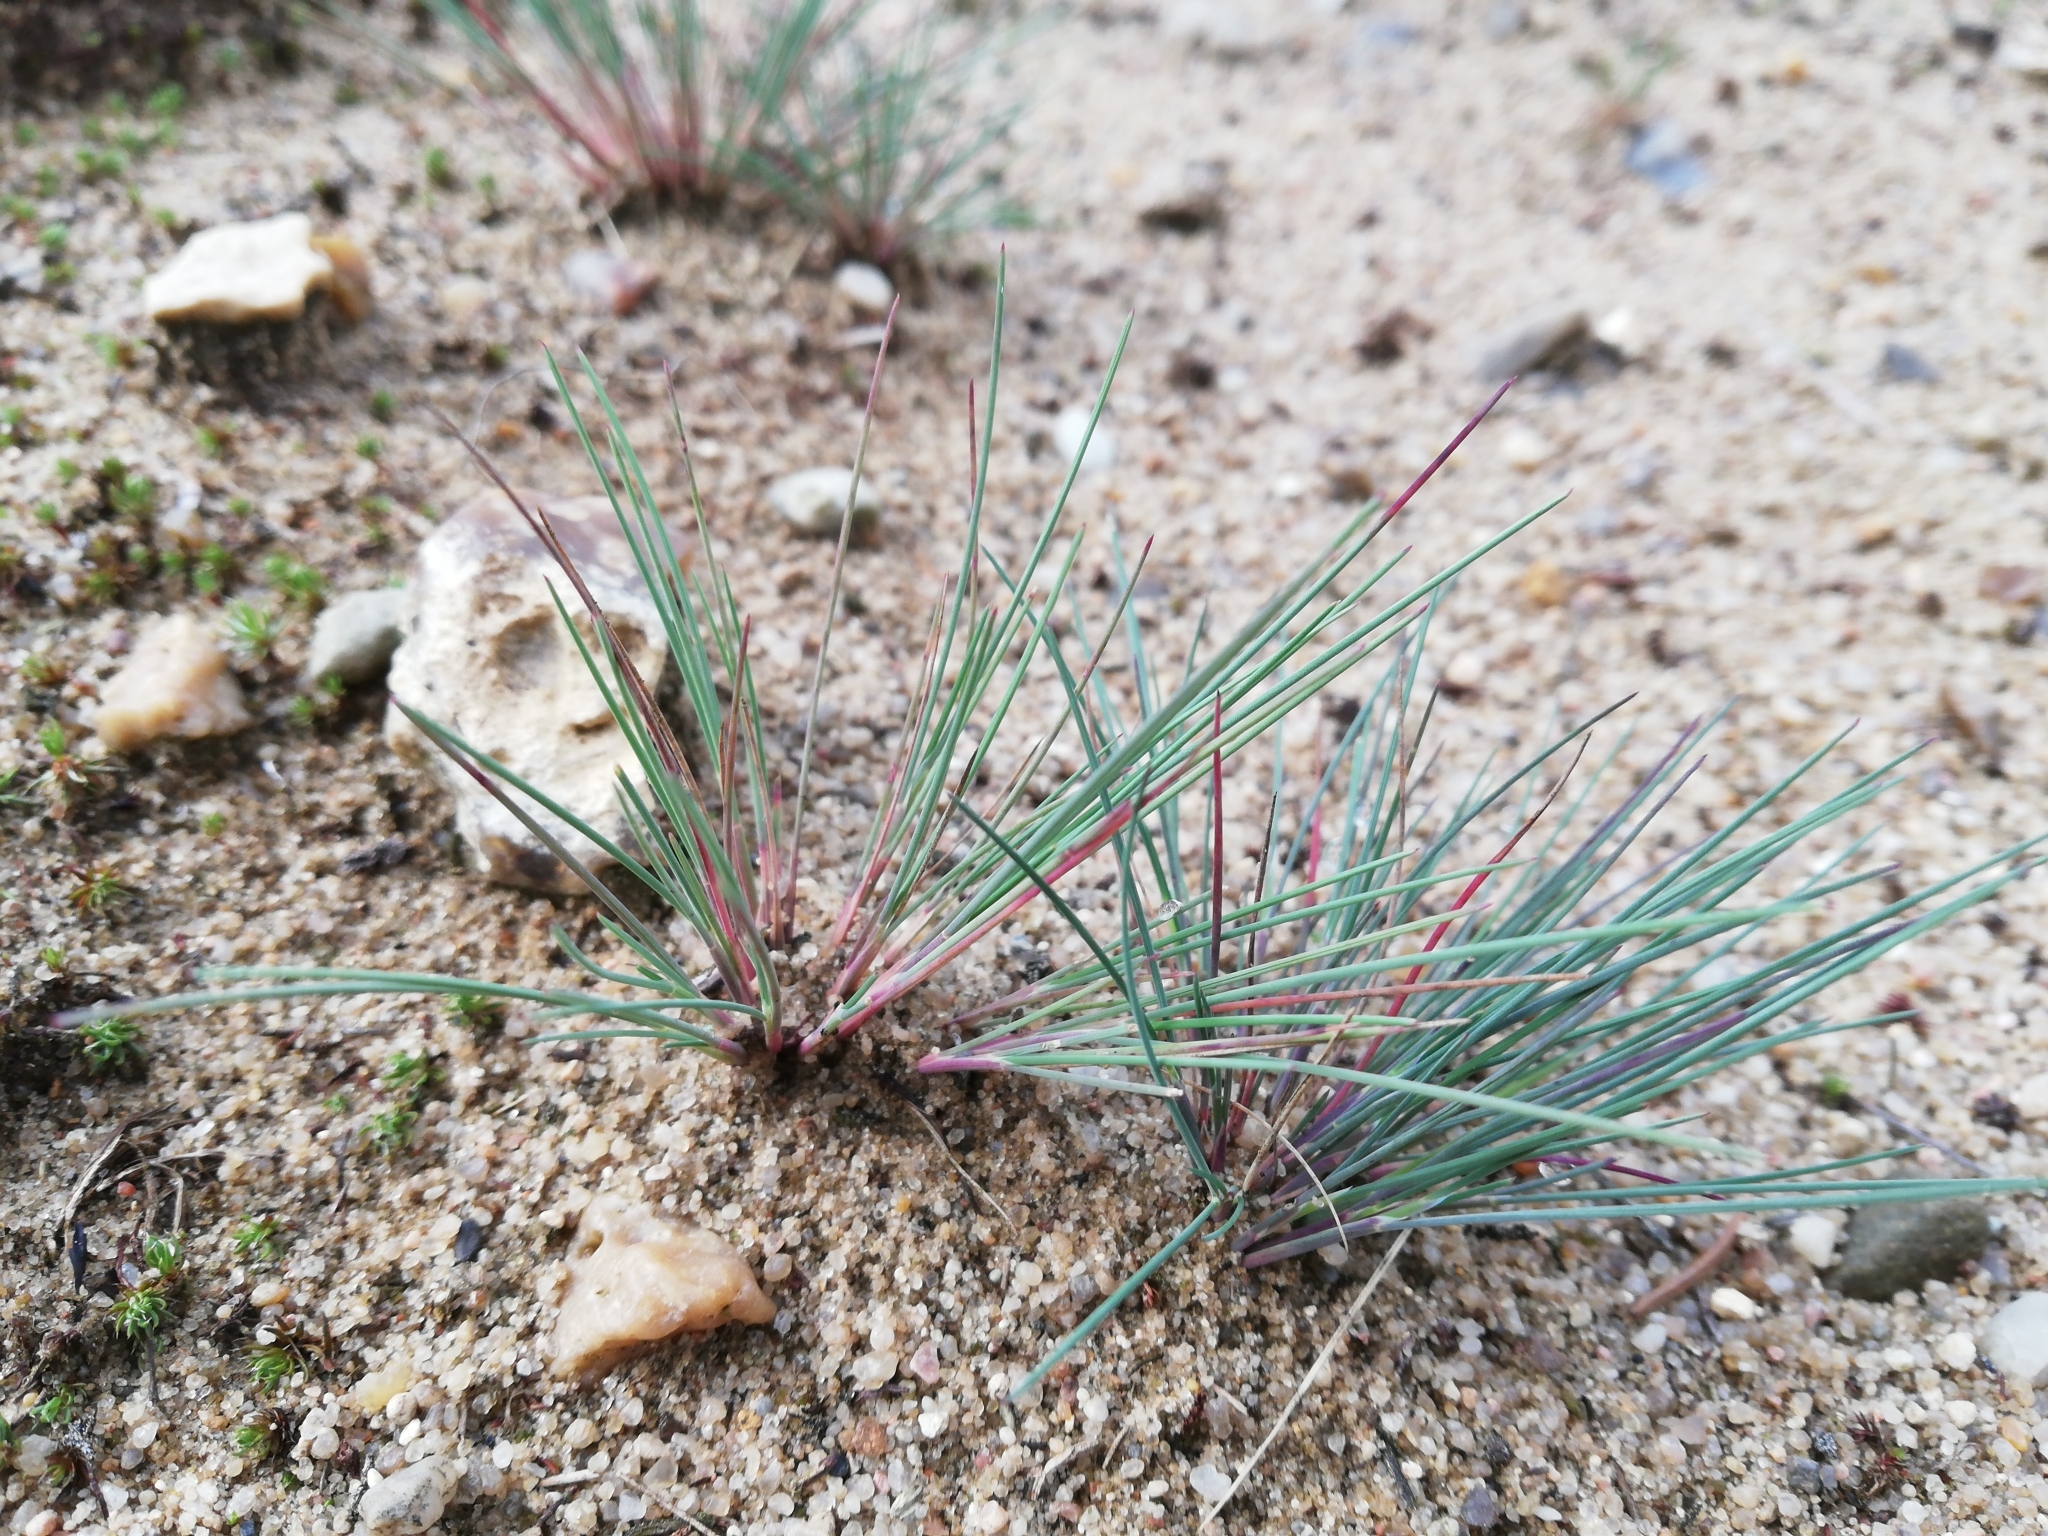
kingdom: Plantae
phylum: Tracheophyta
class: Liliopsida
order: Poales
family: Poaceae
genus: Corynephorus
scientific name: Corynephorus canescens
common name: Grey hair-grass
